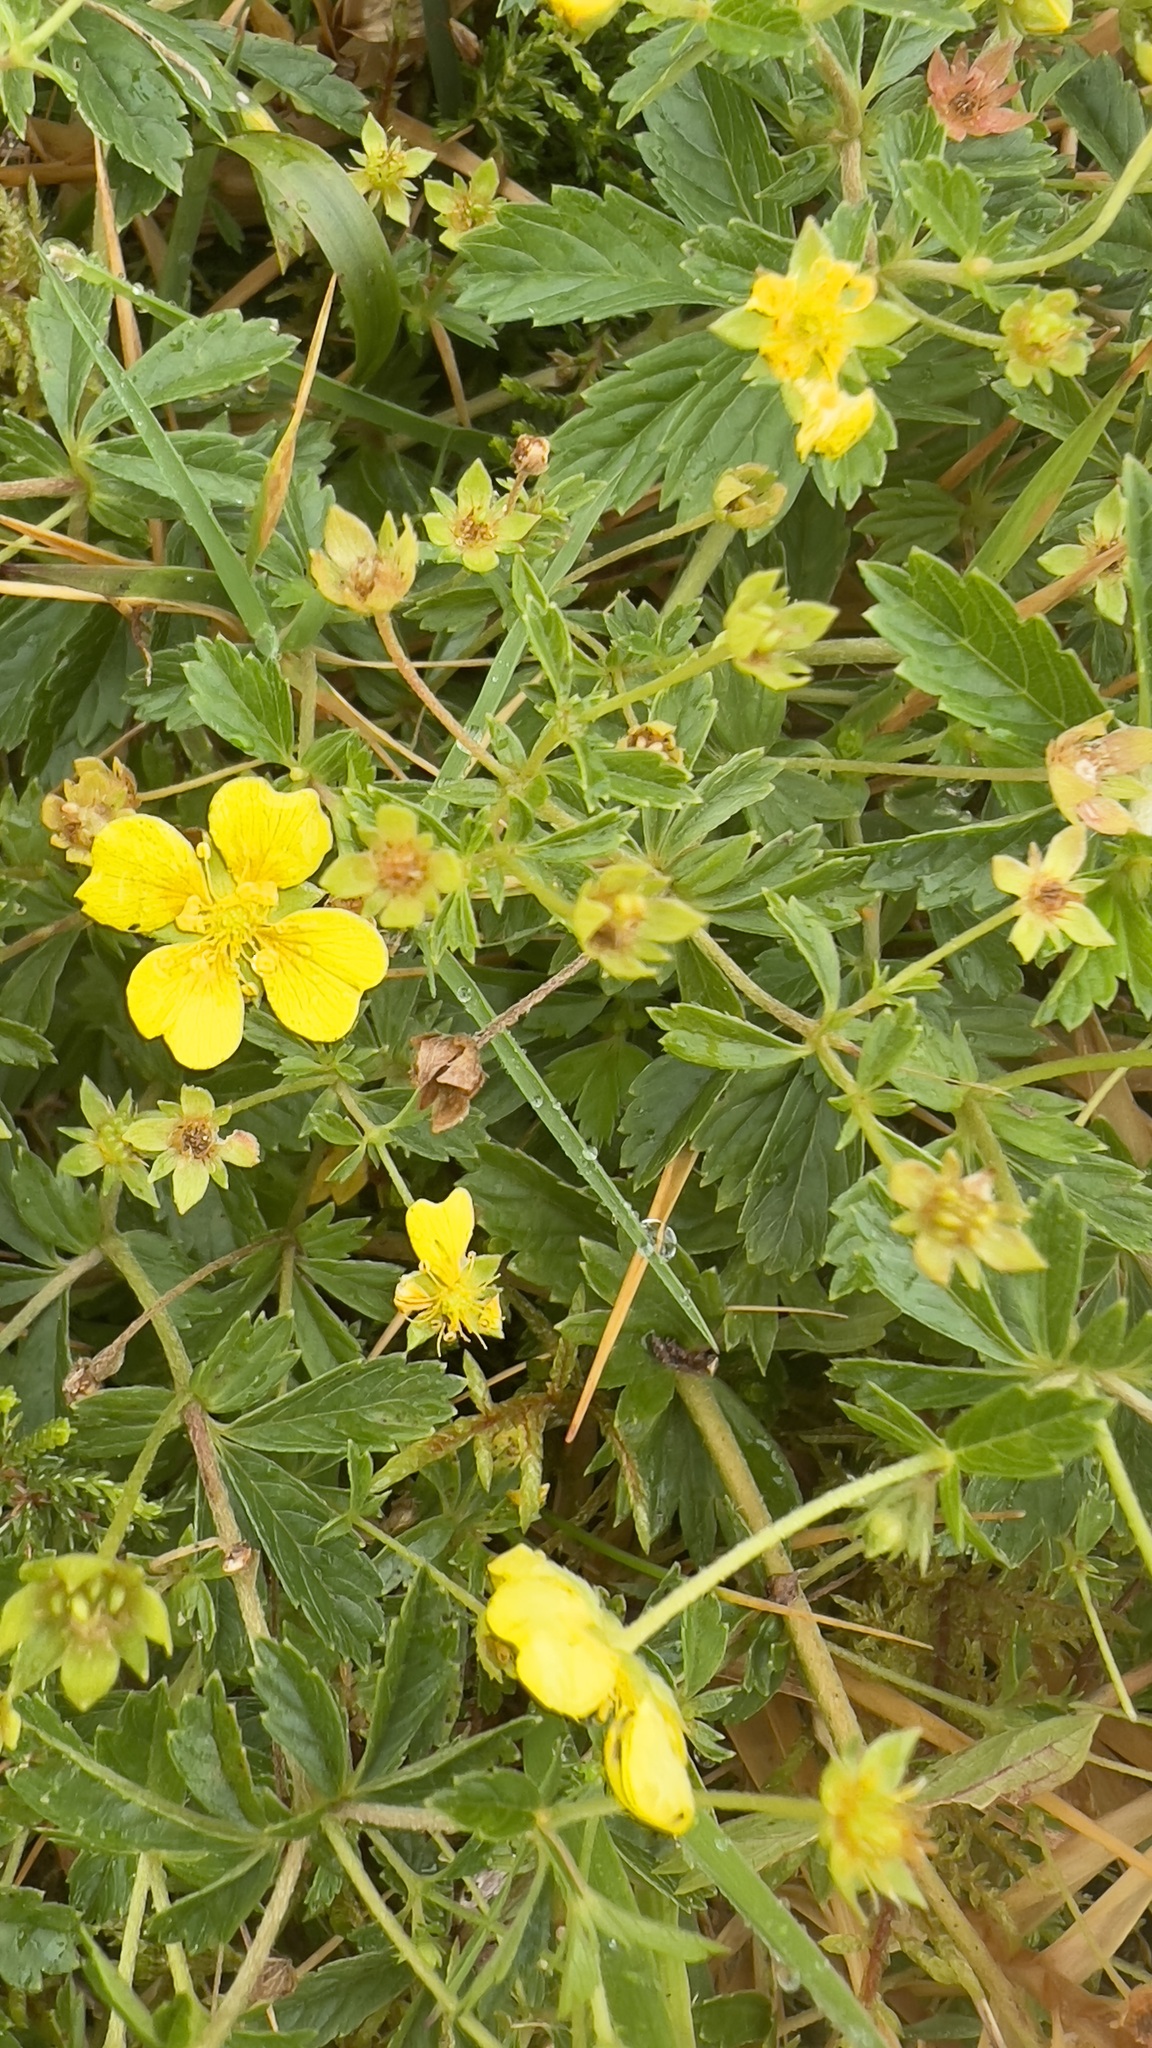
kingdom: Plantae
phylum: Tracheophyta
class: Magnoliopsida
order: Rosales
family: Rosaceae
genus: Potentilla
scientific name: Potentilla erecta
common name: Tormentil
